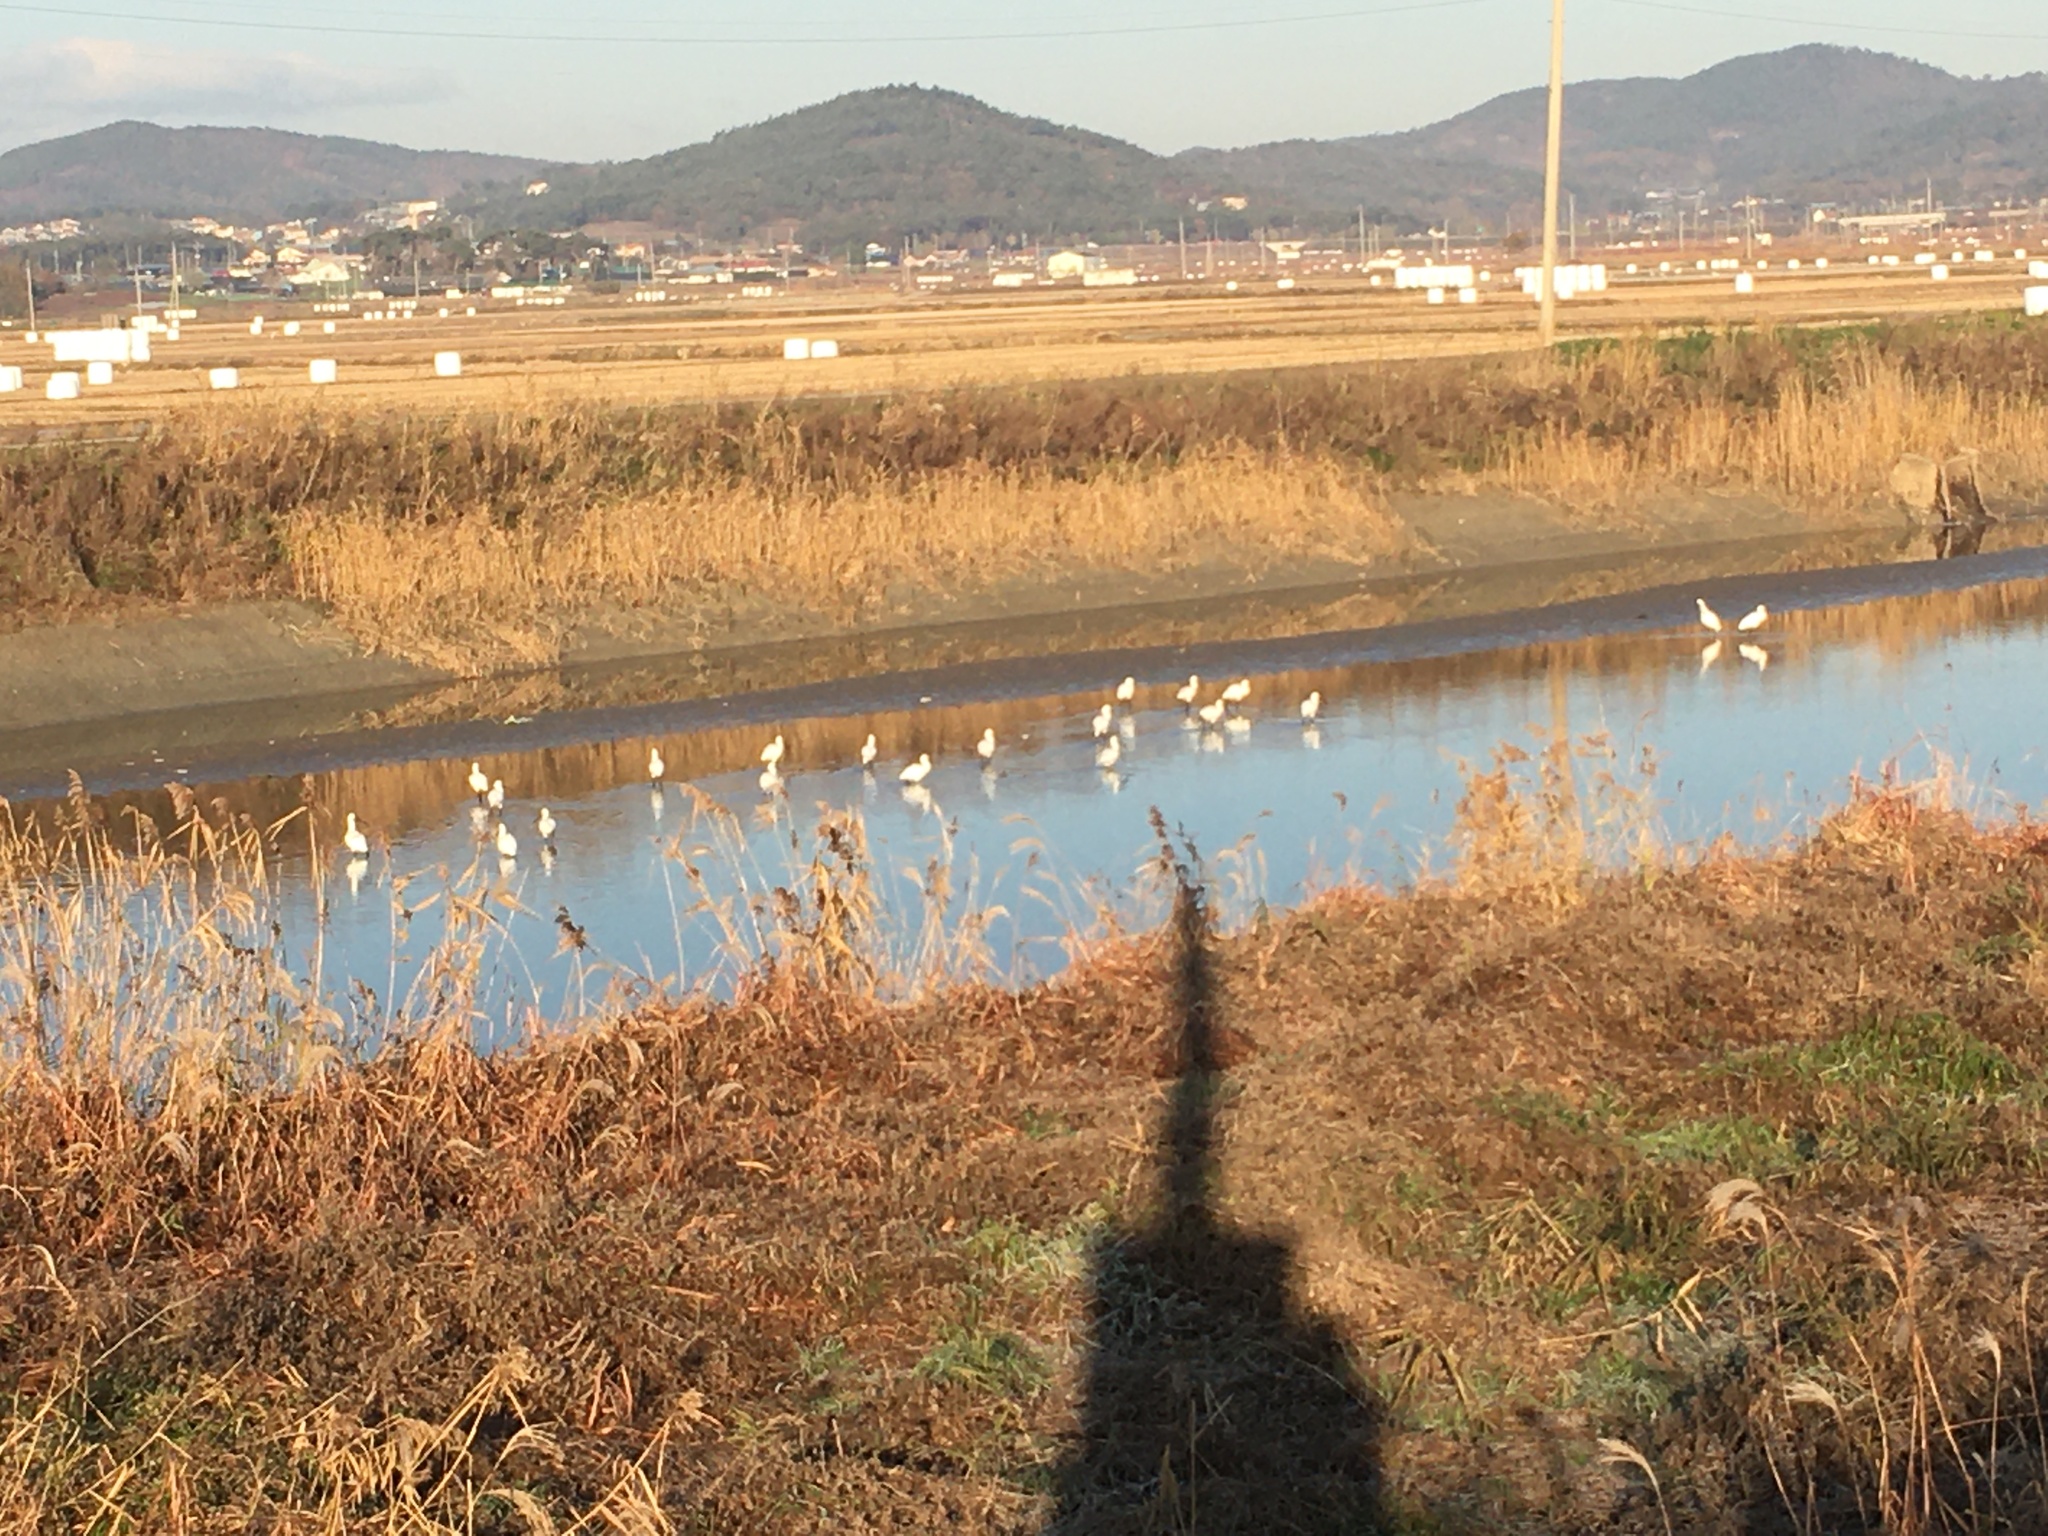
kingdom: Animalia
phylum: Chordata
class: Aves
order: Pelecaniformes
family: Threskiornithidae
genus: Platalea
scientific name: Platalea leucorodia
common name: Eurasian spoonbill
